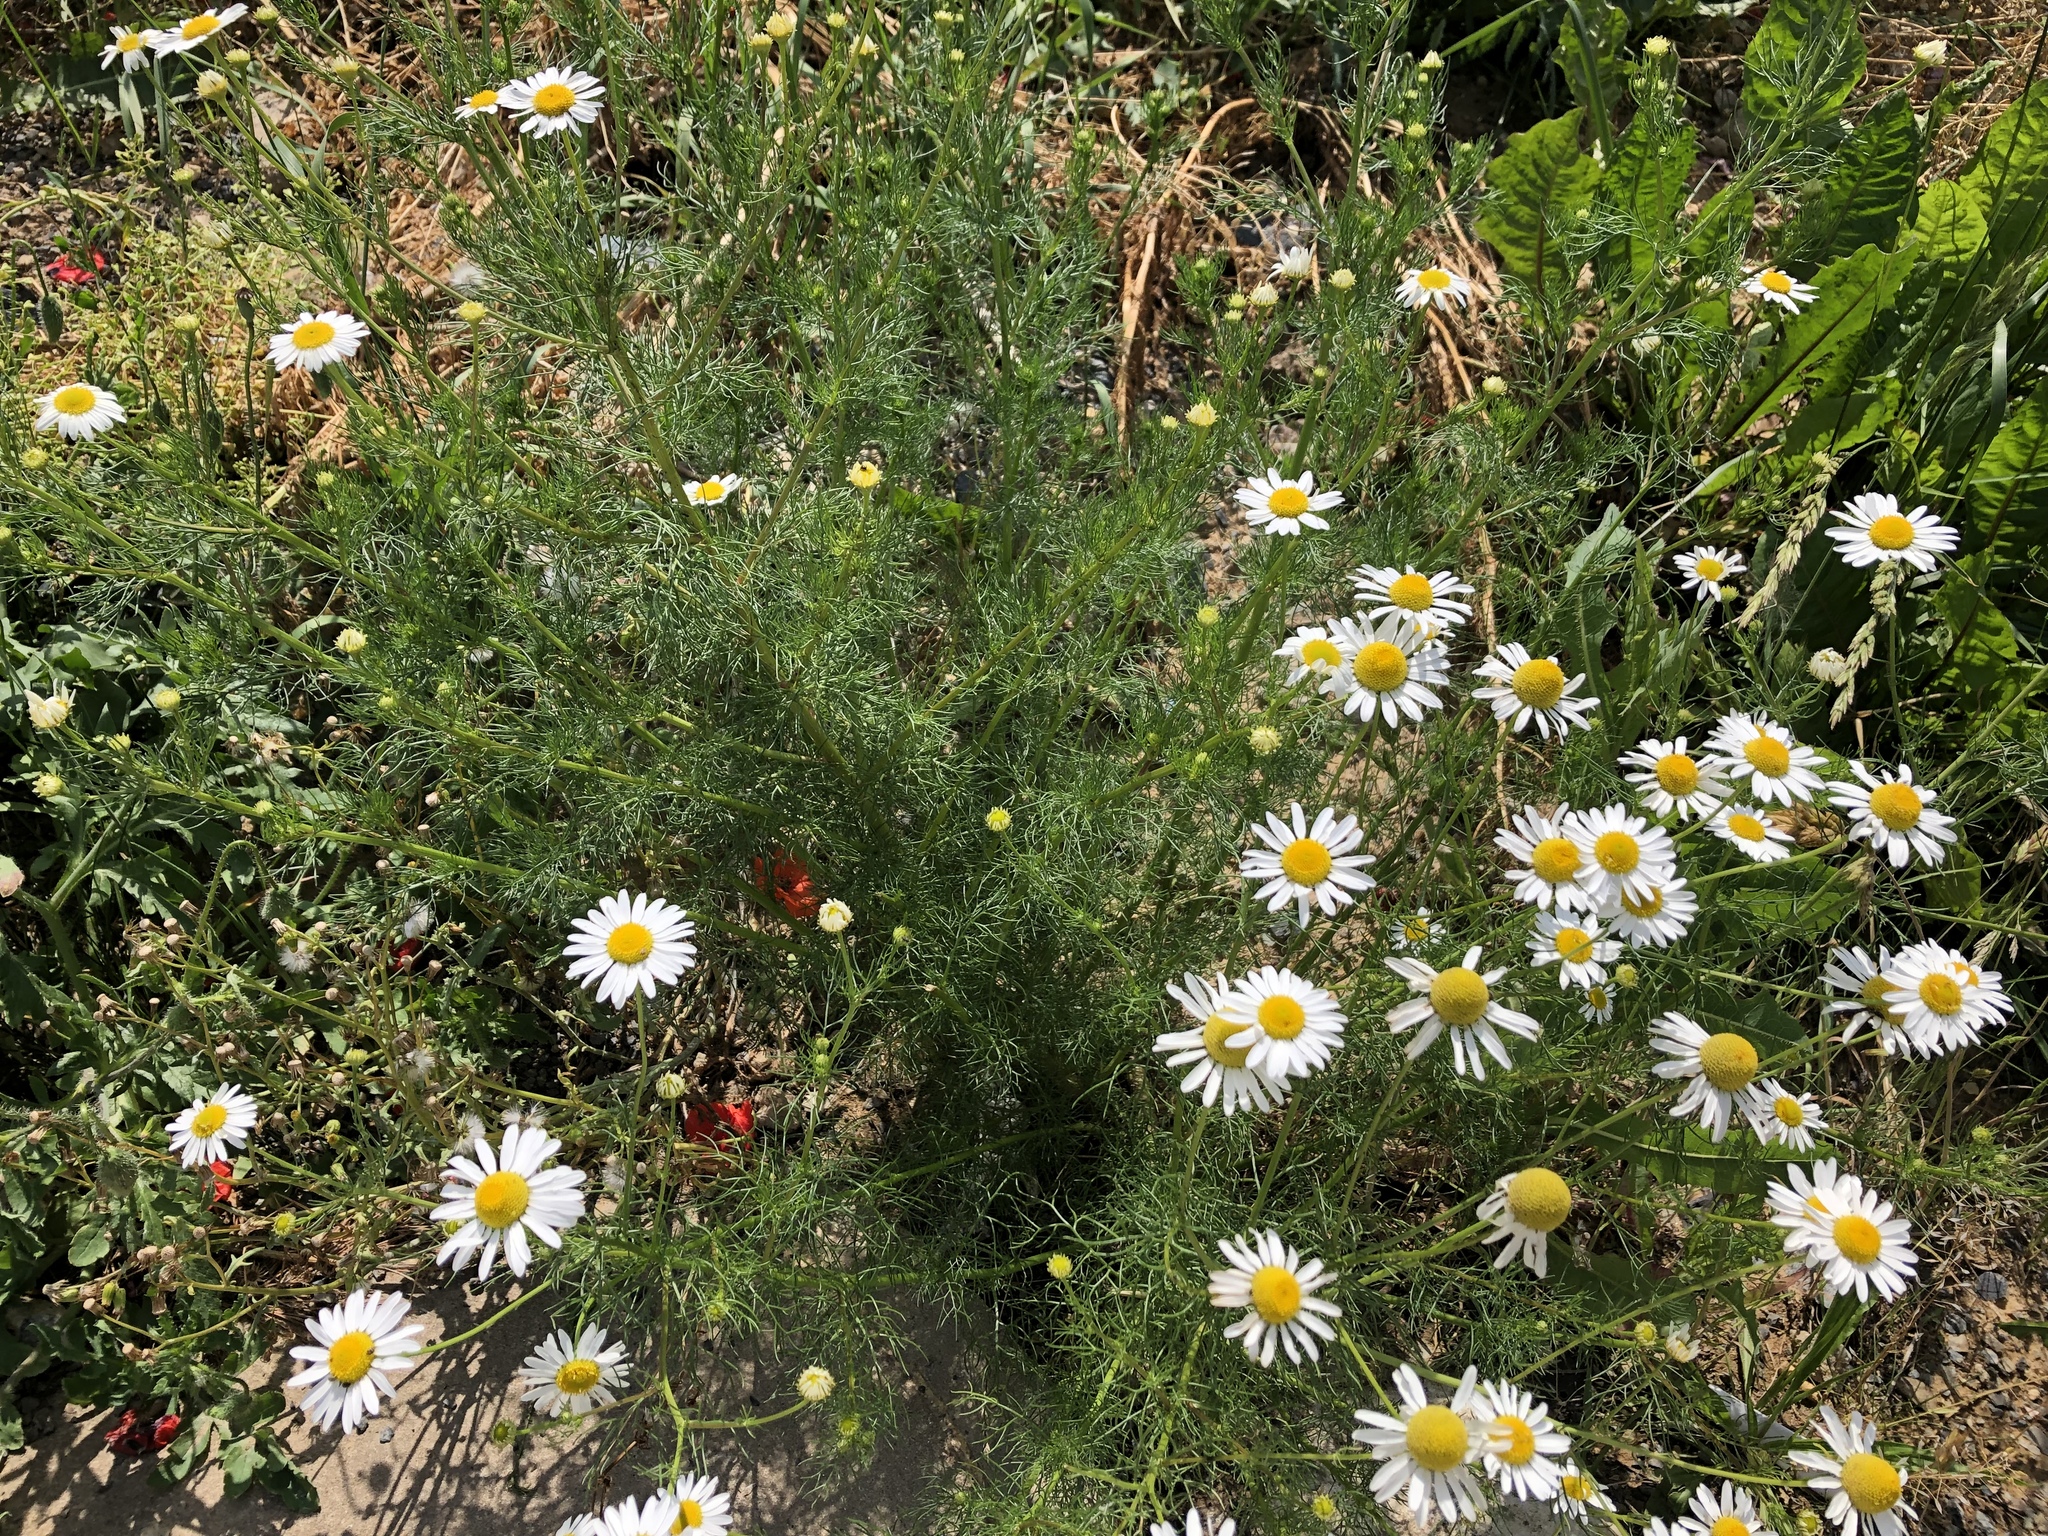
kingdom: Plantae
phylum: Tracheophyta
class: Magnoliopsida
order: Asterales
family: Asteraceae
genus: Tripleurospermum
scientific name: Tripleurospermum inodorum
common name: Scentless mayweed
